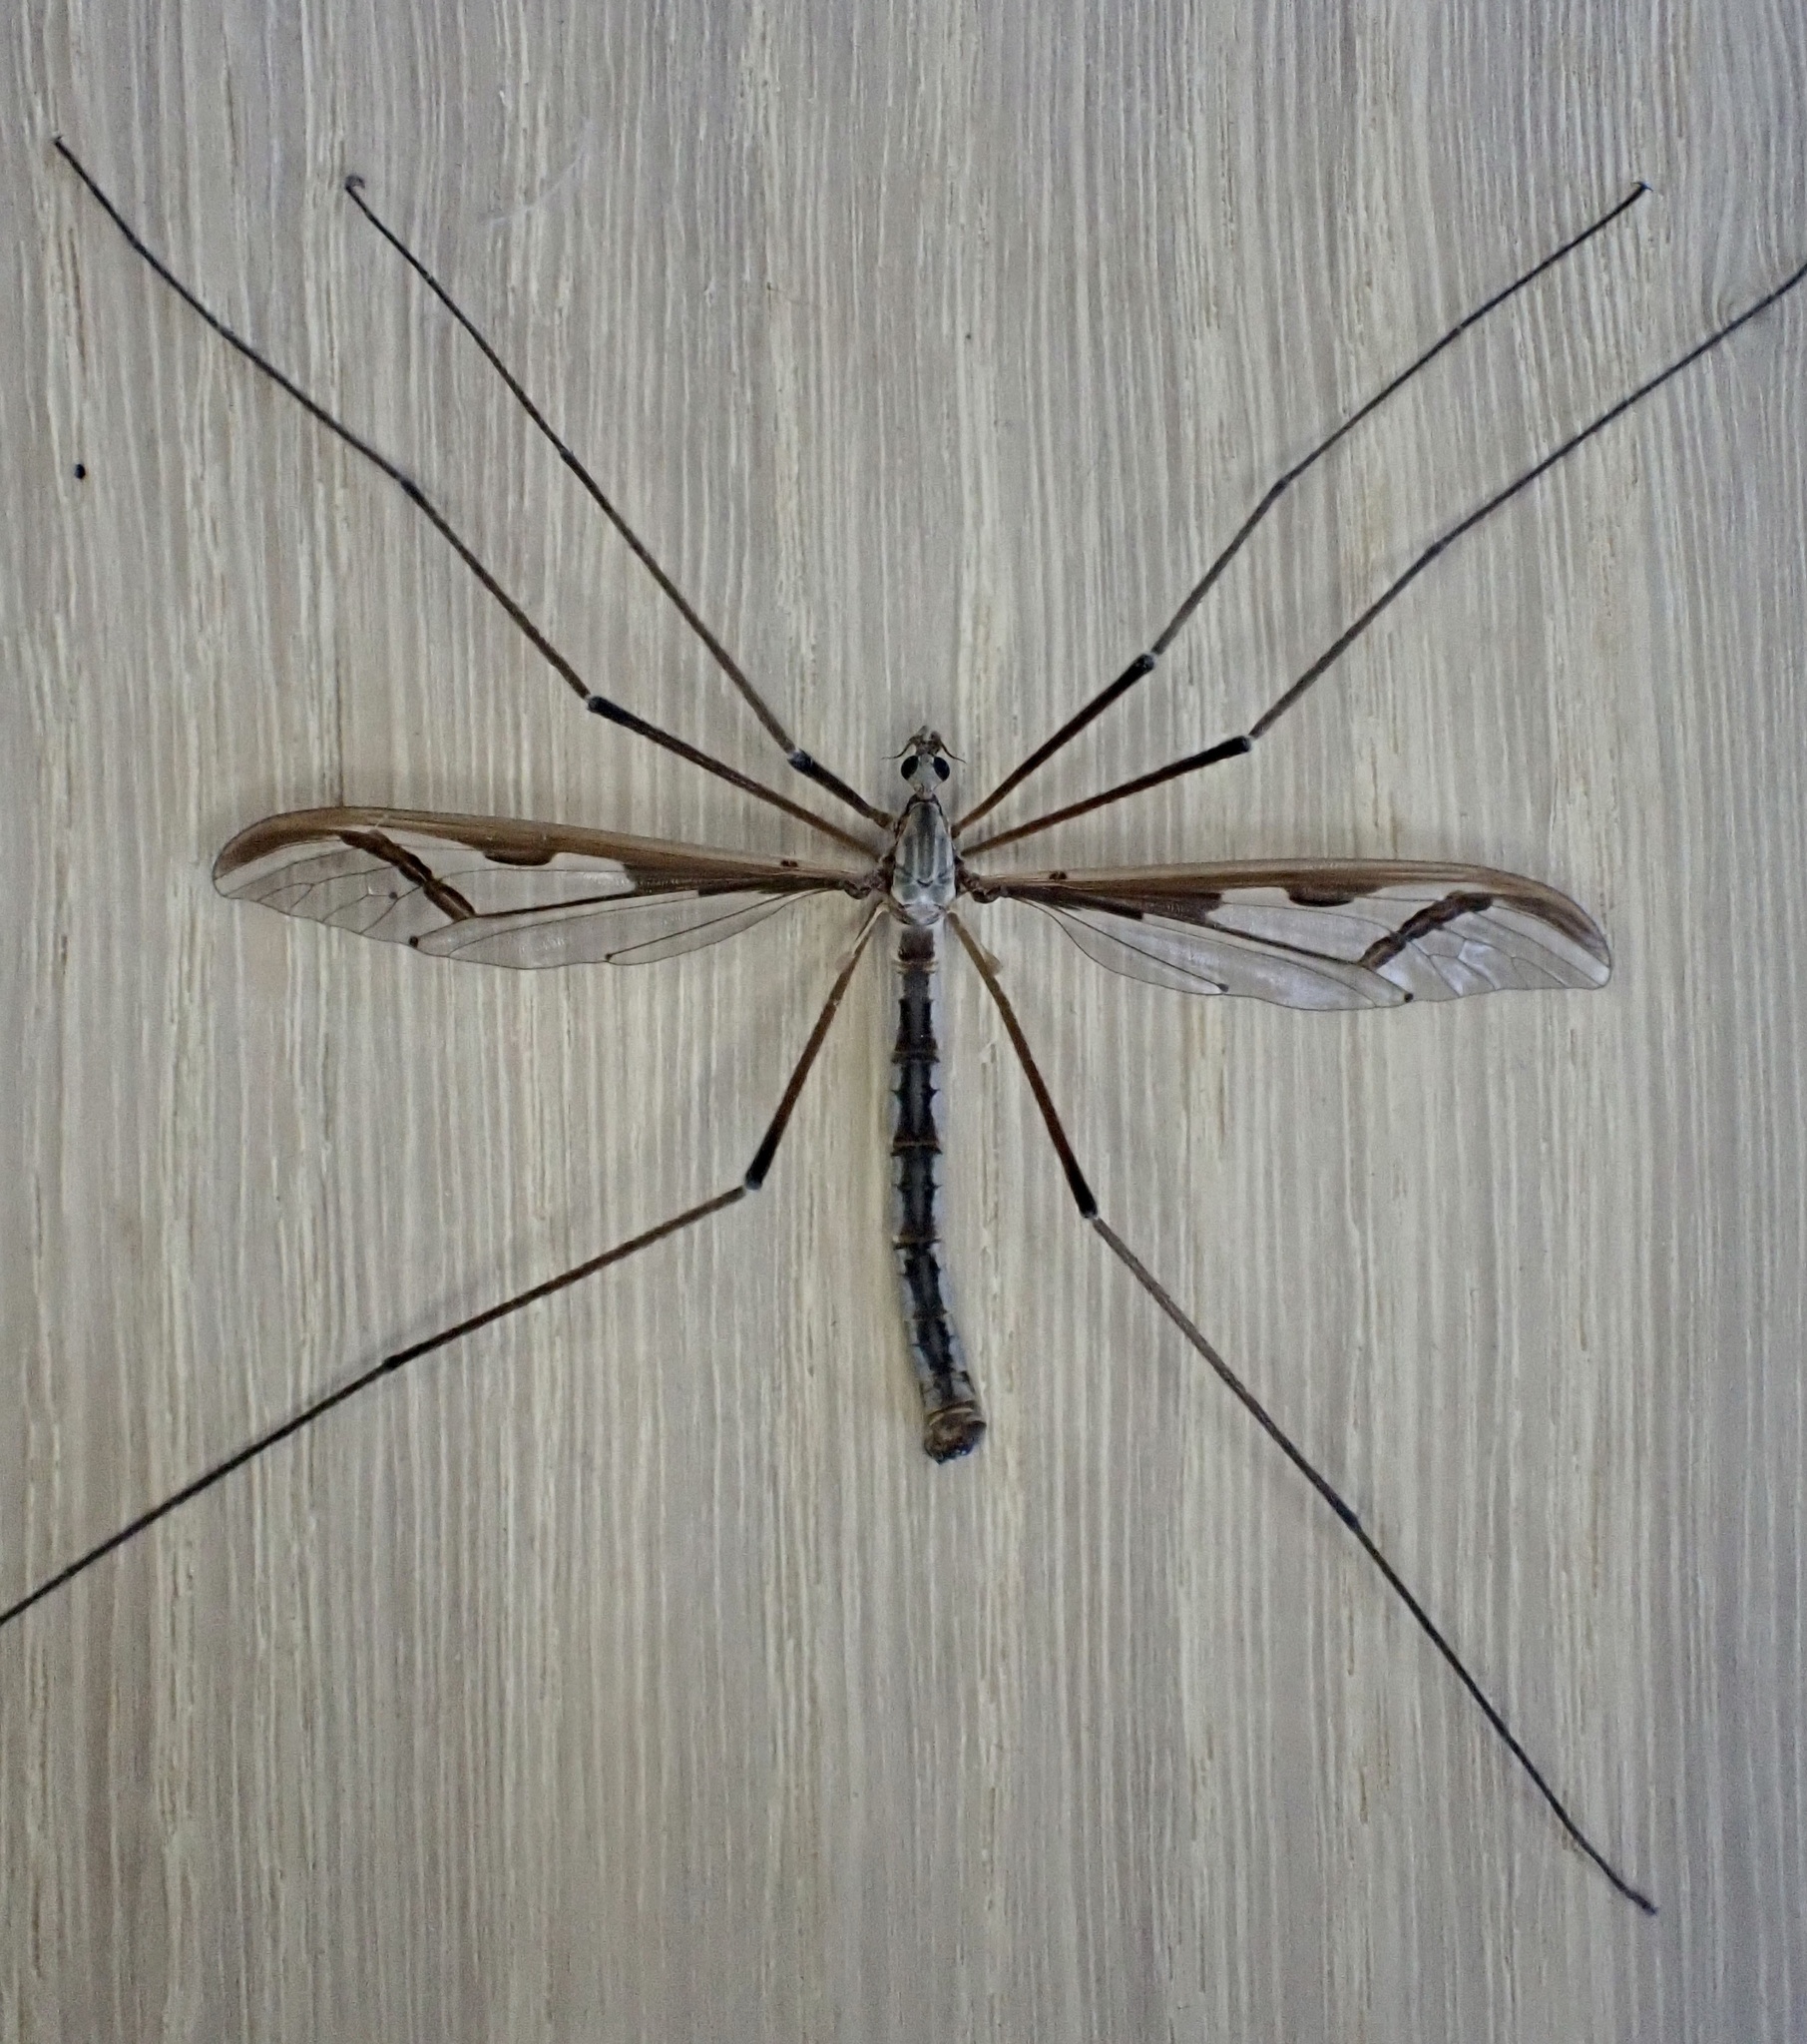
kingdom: Animalia
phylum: Arthropoda
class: Insecta
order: Diptera
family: Pediciidae
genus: Pedicia
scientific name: Pedicia rivosa
